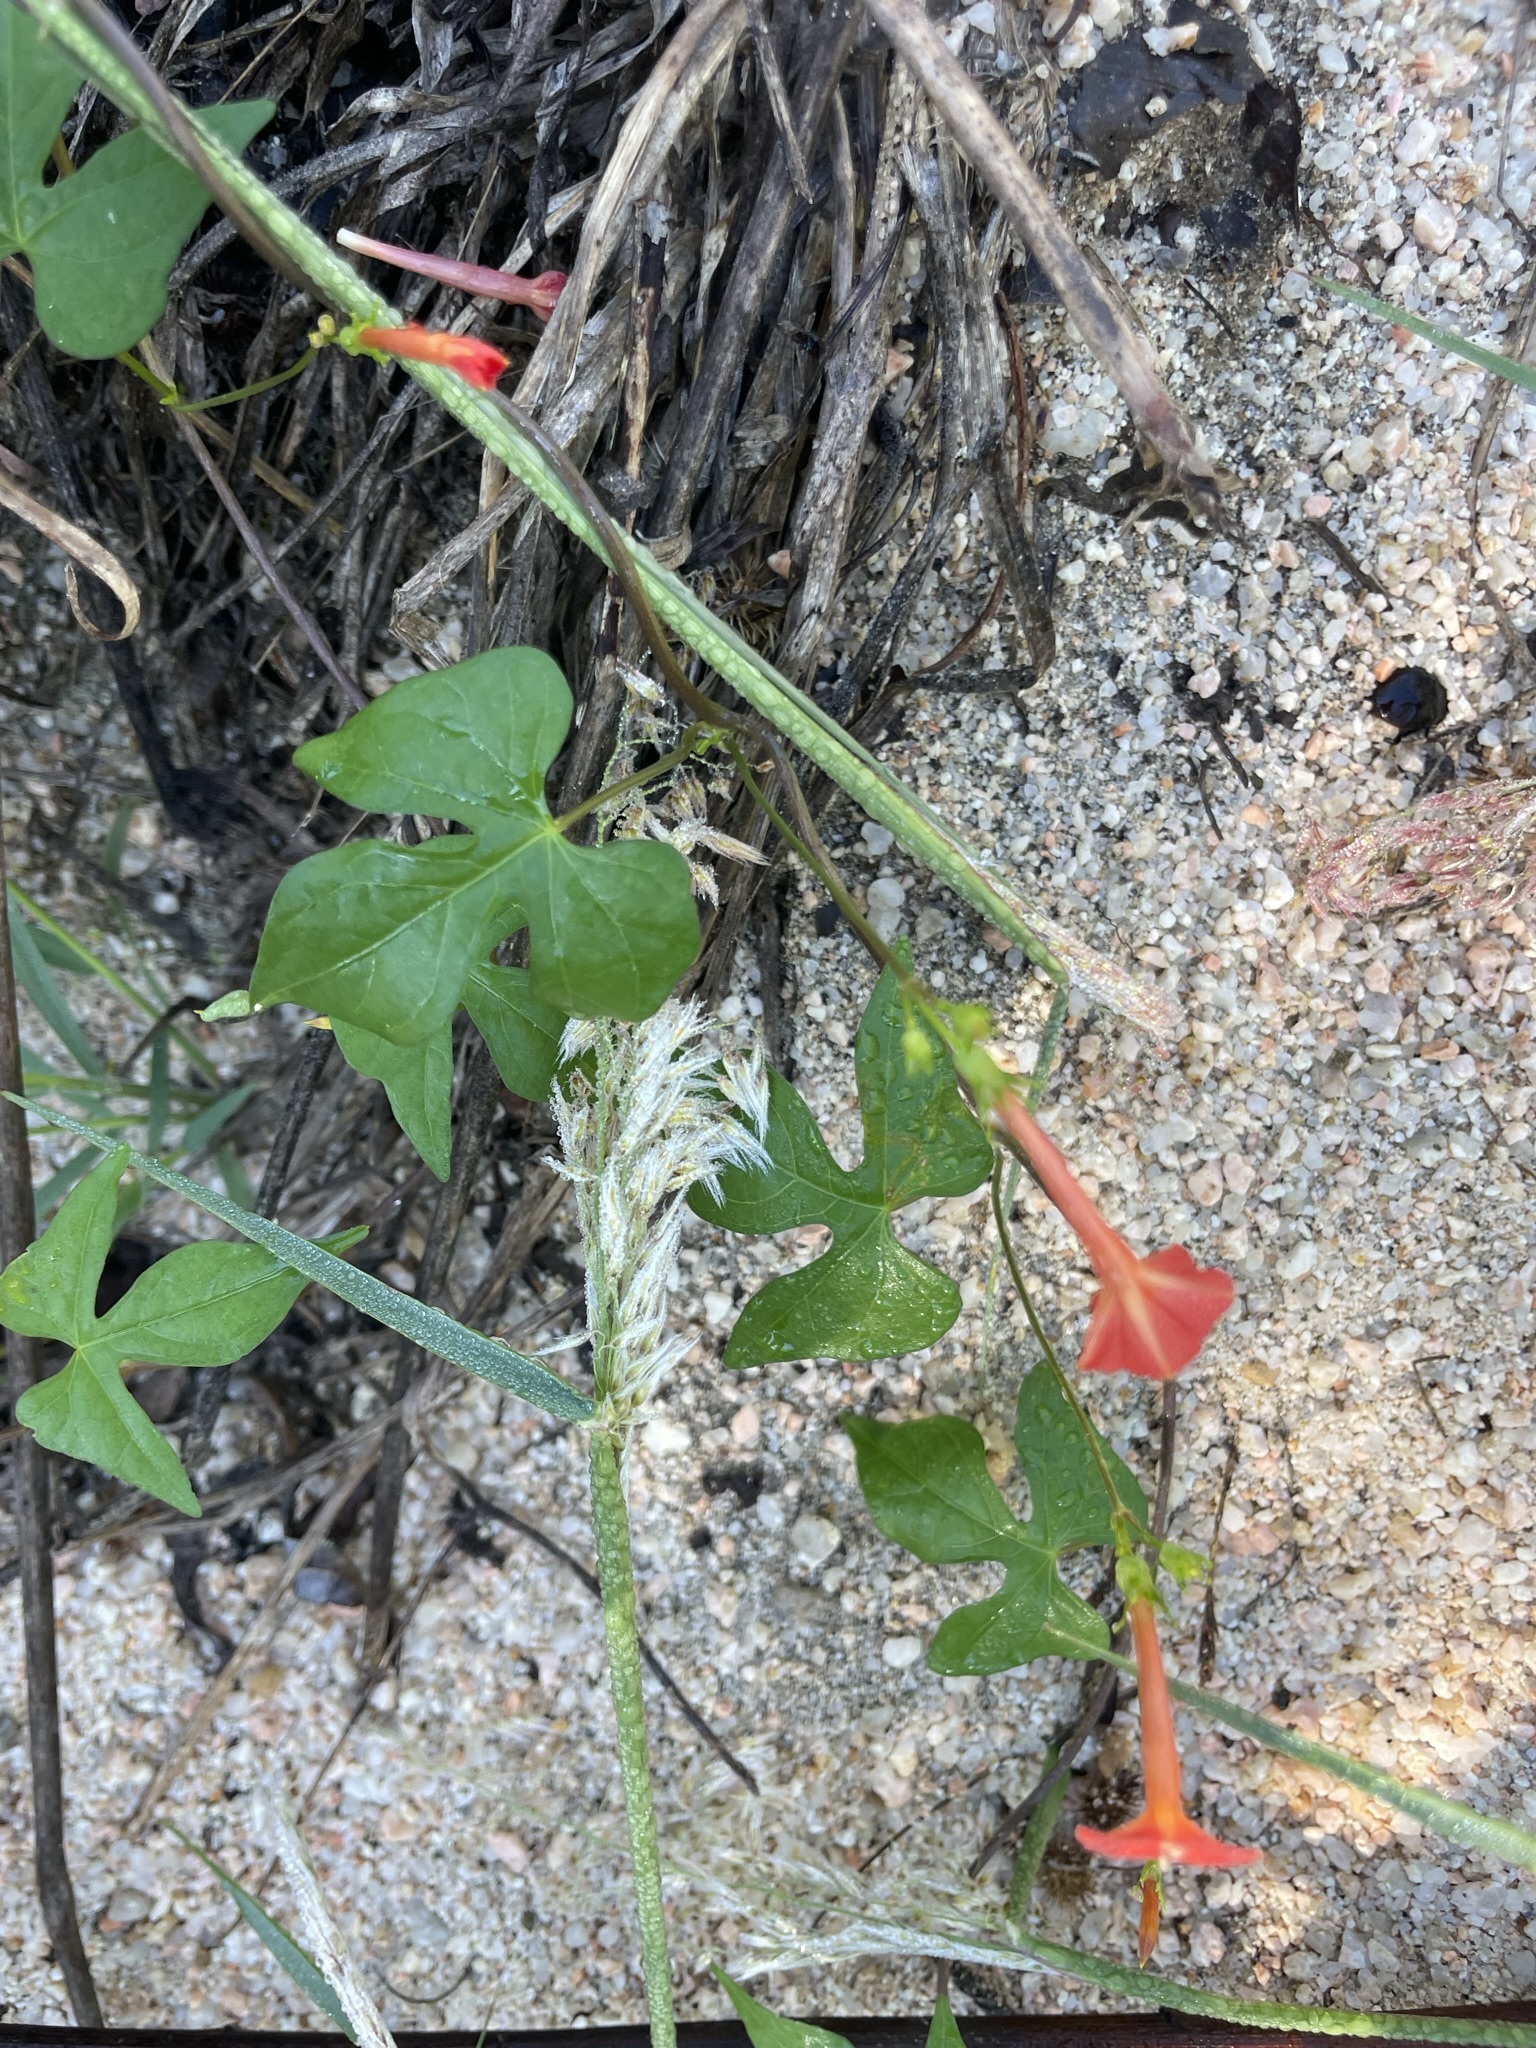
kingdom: Plantae
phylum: Tracheophyta
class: Magnoliopsida
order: Solanales
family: Convolvulaceae
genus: Ipomoea
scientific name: Ipomoea cristulata
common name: Trans-pecos morning-glory
